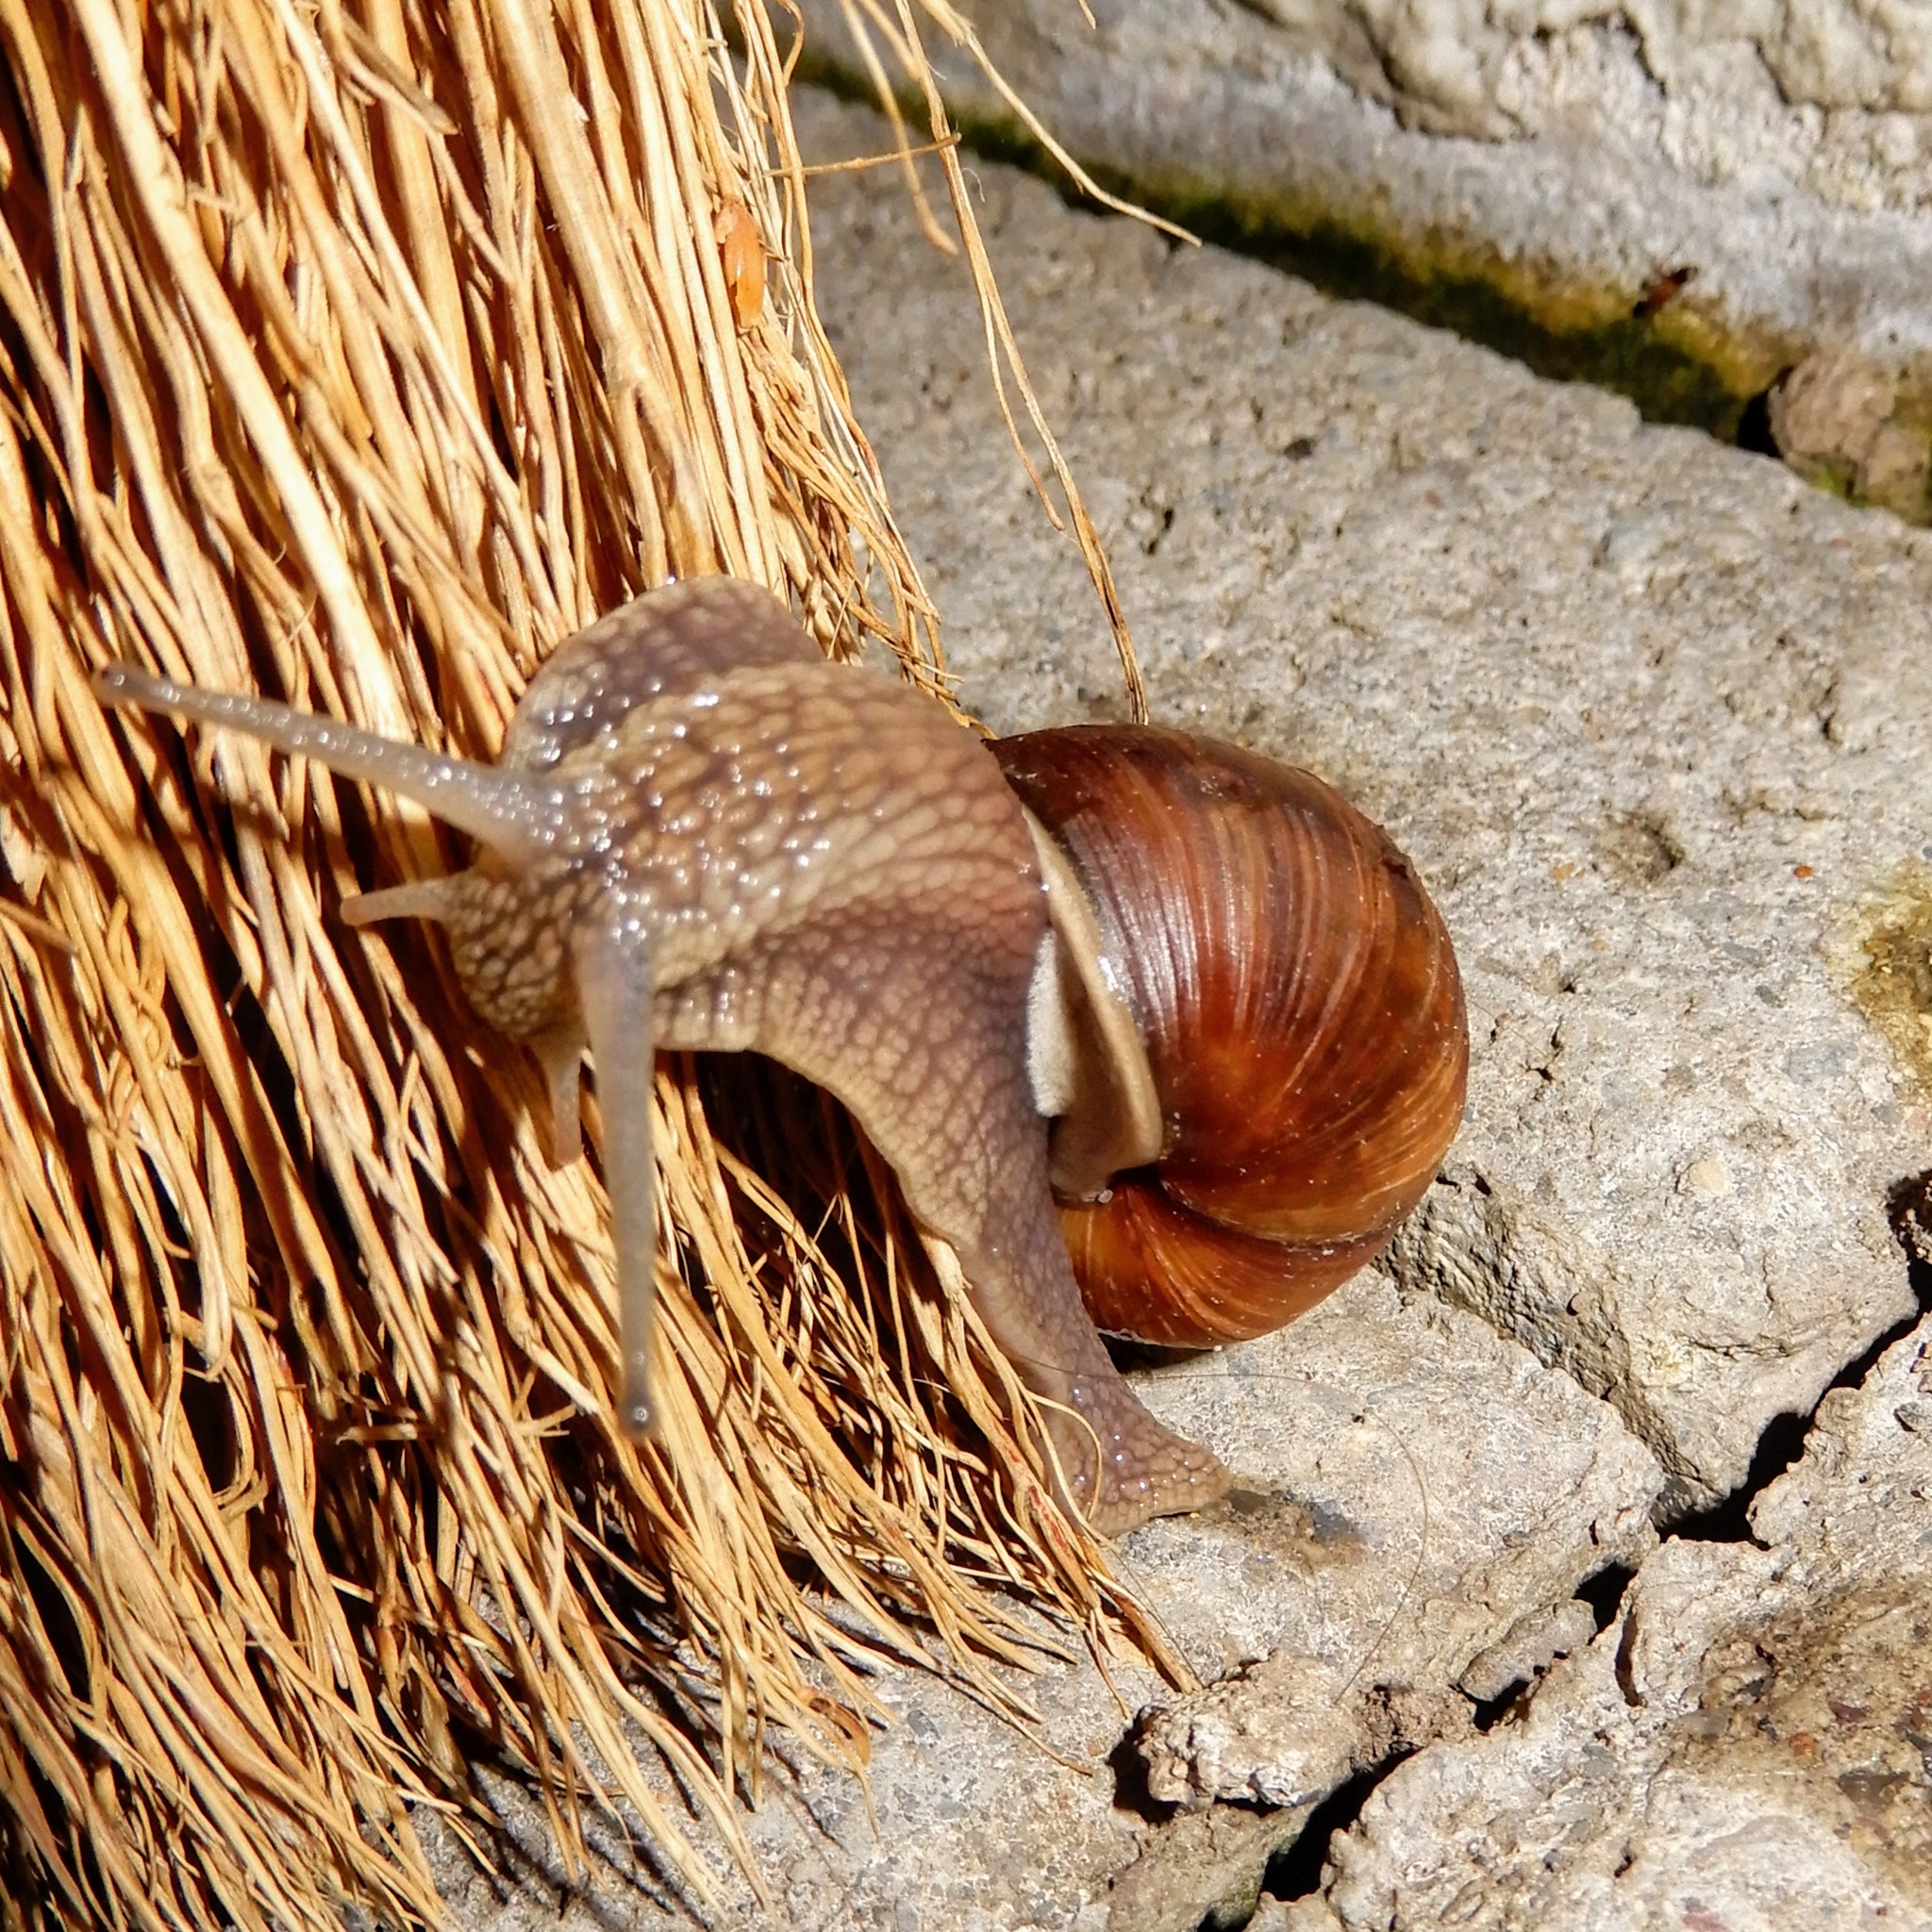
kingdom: Animalia
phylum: Mollusca
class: Gastropoda
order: Stylommatophora
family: Helicidae
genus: Helix
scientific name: Helix pomatia
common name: Roman snail
